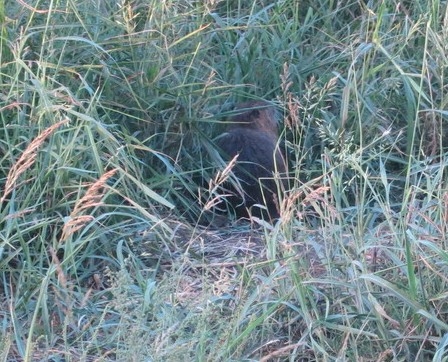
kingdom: Animalia
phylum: Chordata
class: Mammalia
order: Rodentia
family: Myocastoridae
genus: Myocastor
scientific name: Myocastor coypus
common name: Coypu
